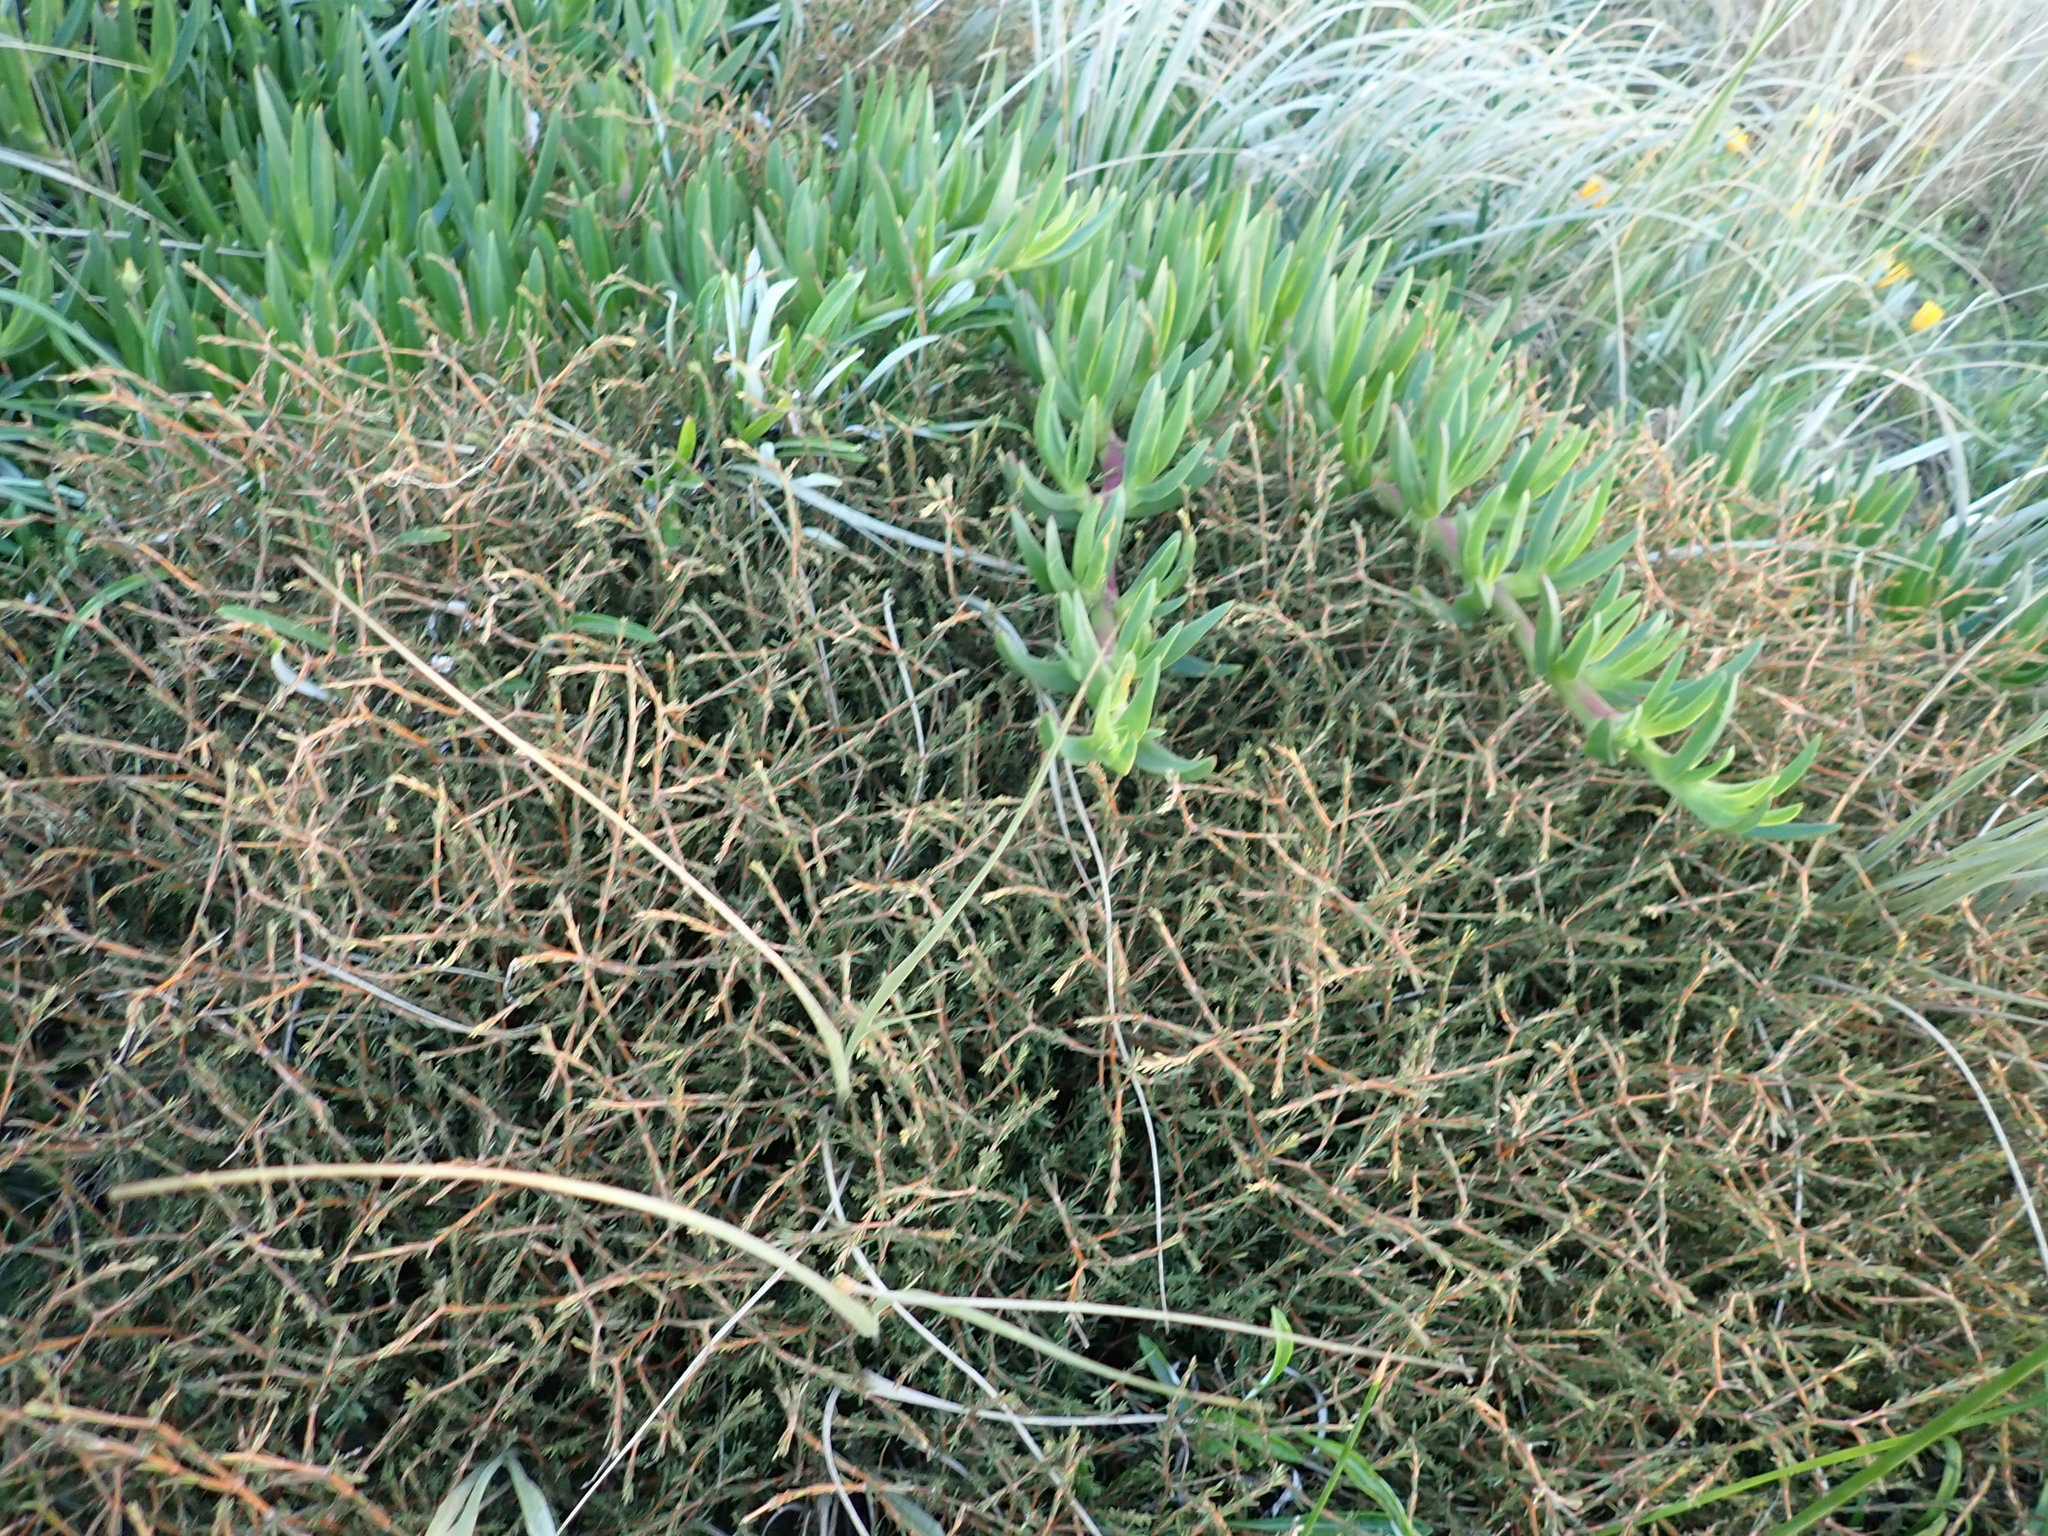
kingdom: Plantae
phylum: Tracheophyta
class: Magnoliopsida
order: Gentianales
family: Rubiaceae
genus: Coprosma
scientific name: Coprosma acerosa
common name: Sand coprosma
